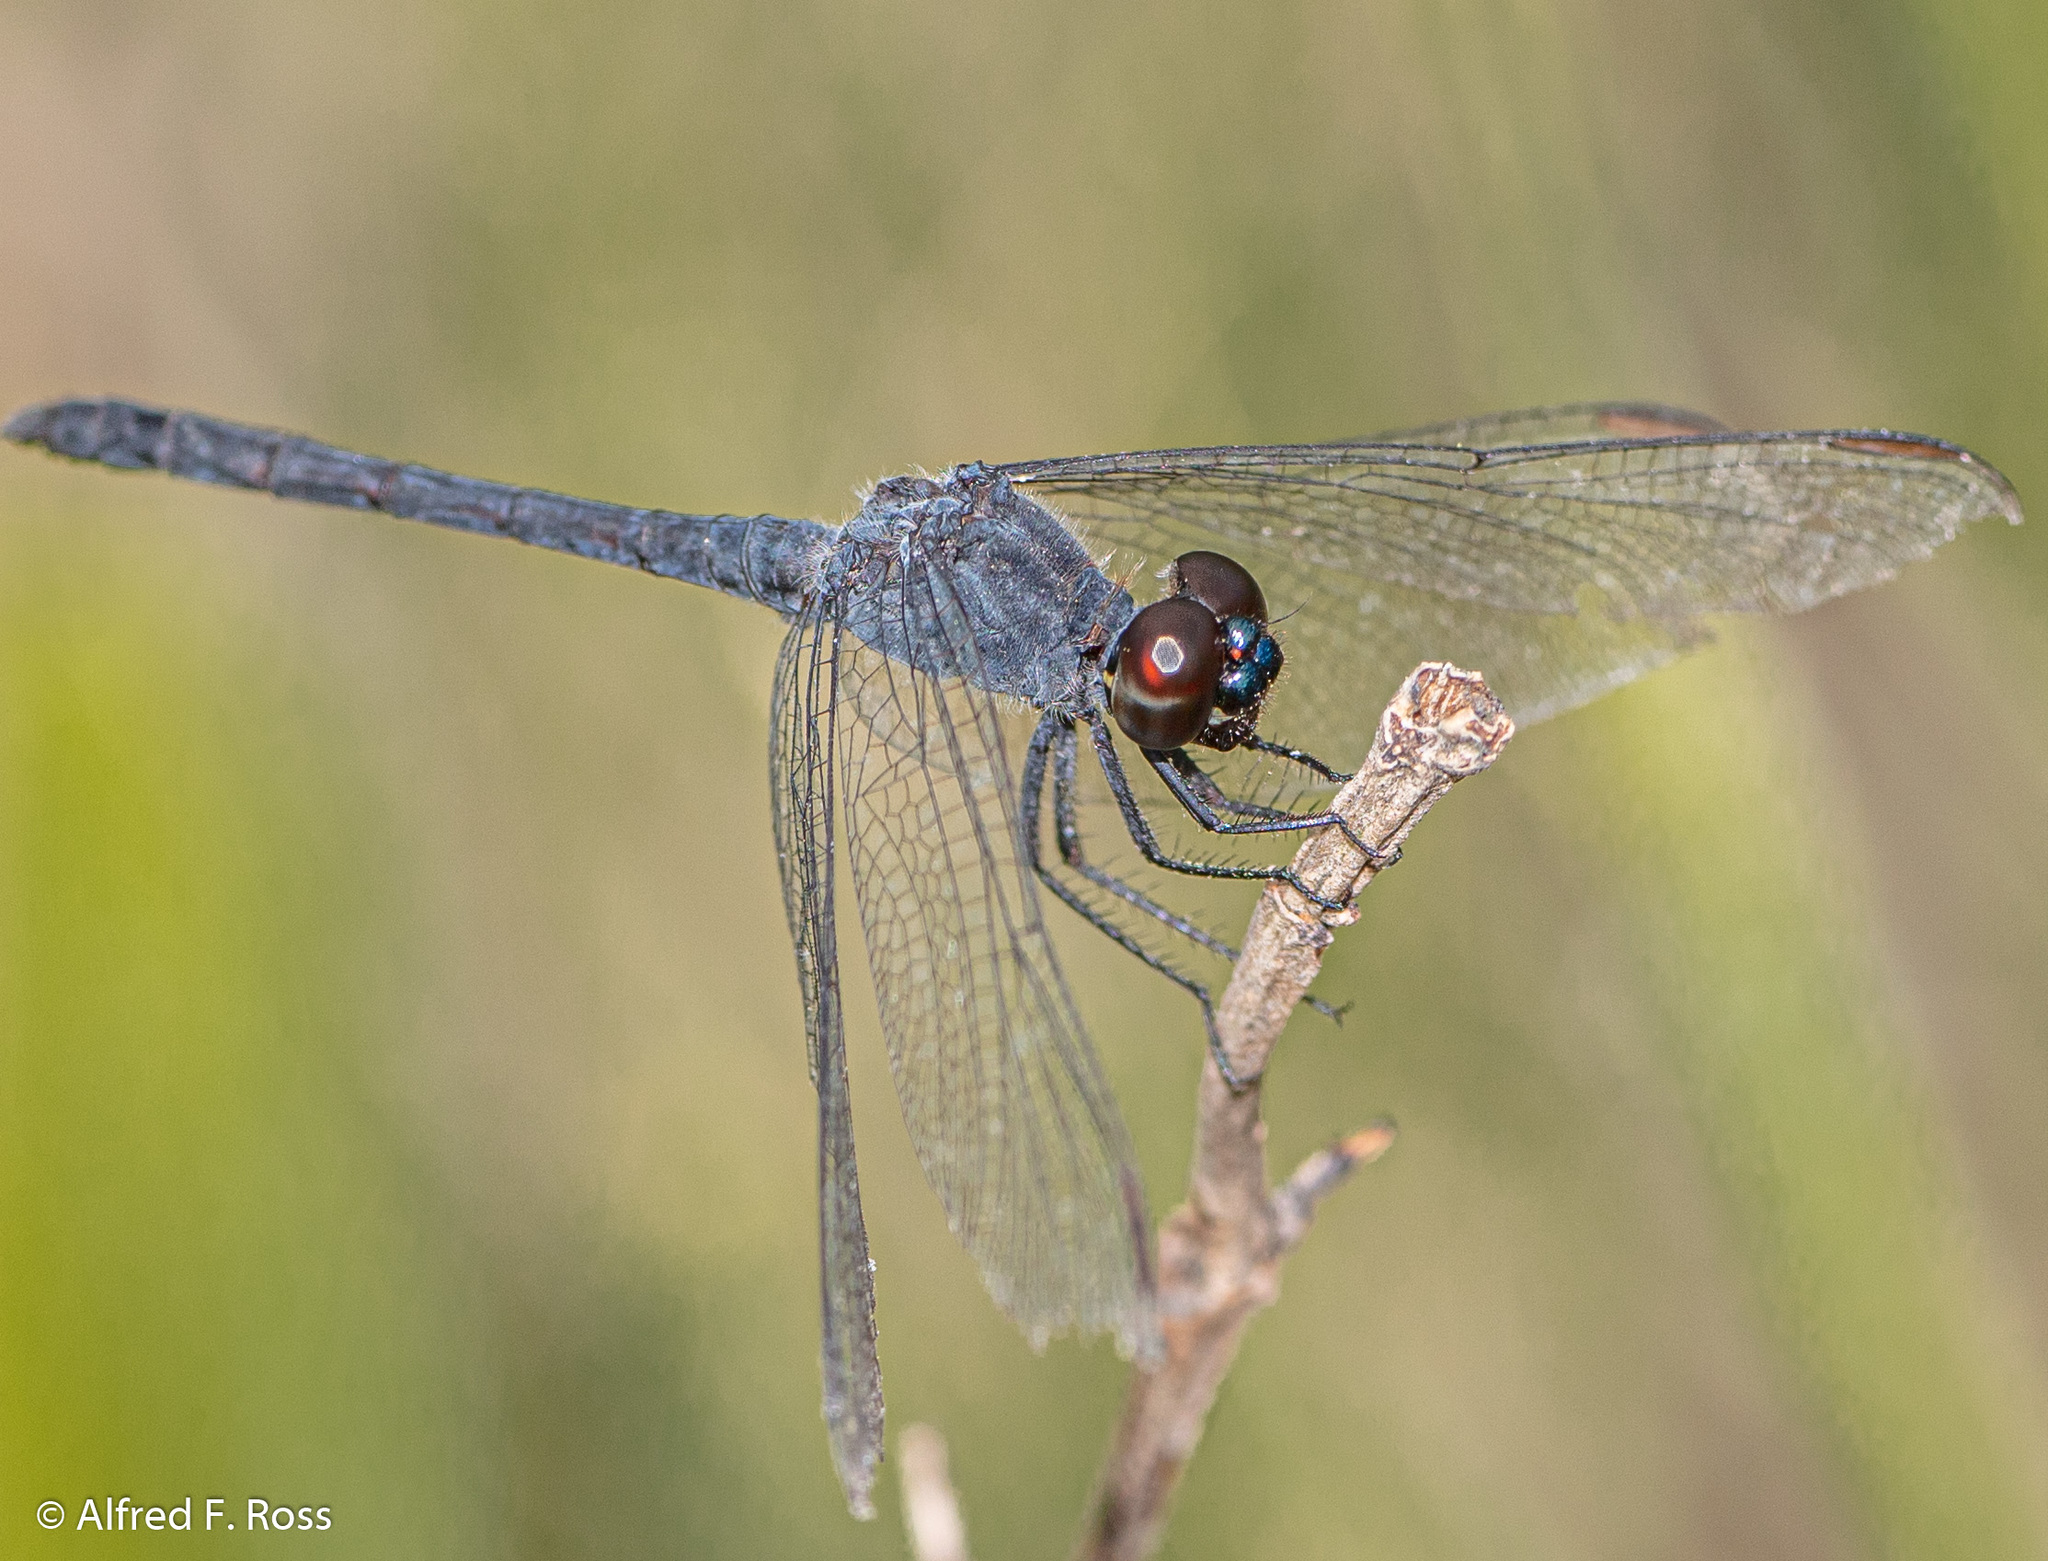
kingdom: Animalia
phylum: Arthropoda
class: Insecta
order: Odonata
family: Libellulidae
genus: Erythrodiplax
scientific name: Erythrodiplax berenice
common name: Seaside dragonlet
